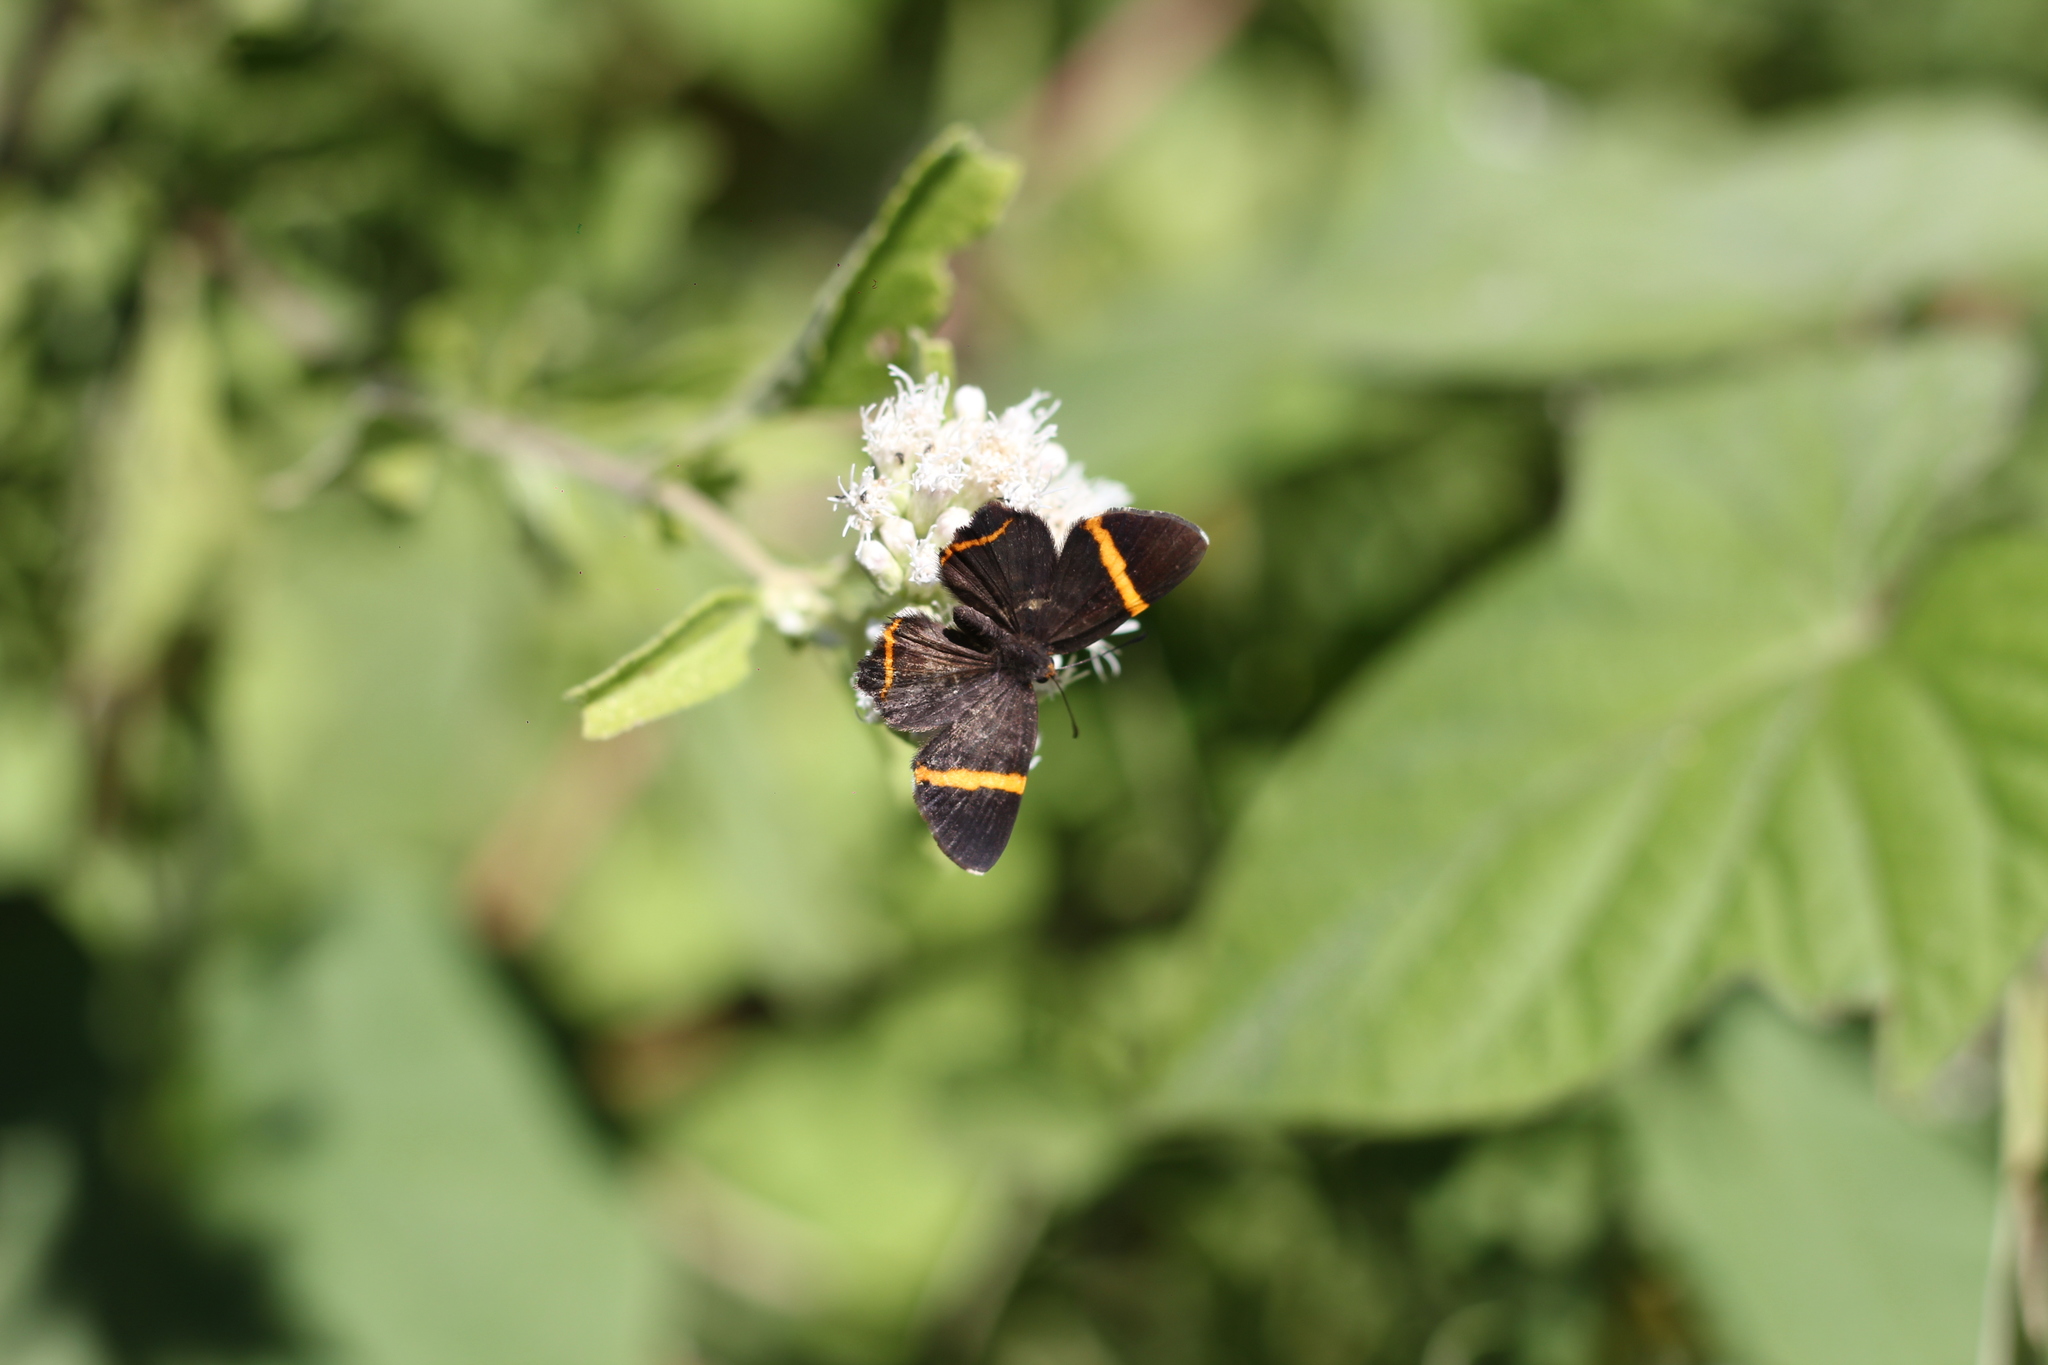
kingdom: Animalia
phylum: Arthropoda
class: Insecta
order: Lepidoptera
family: Riodinidae
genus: Riodina
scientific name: Riodina lysippoides
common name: Little dancer metalmark
